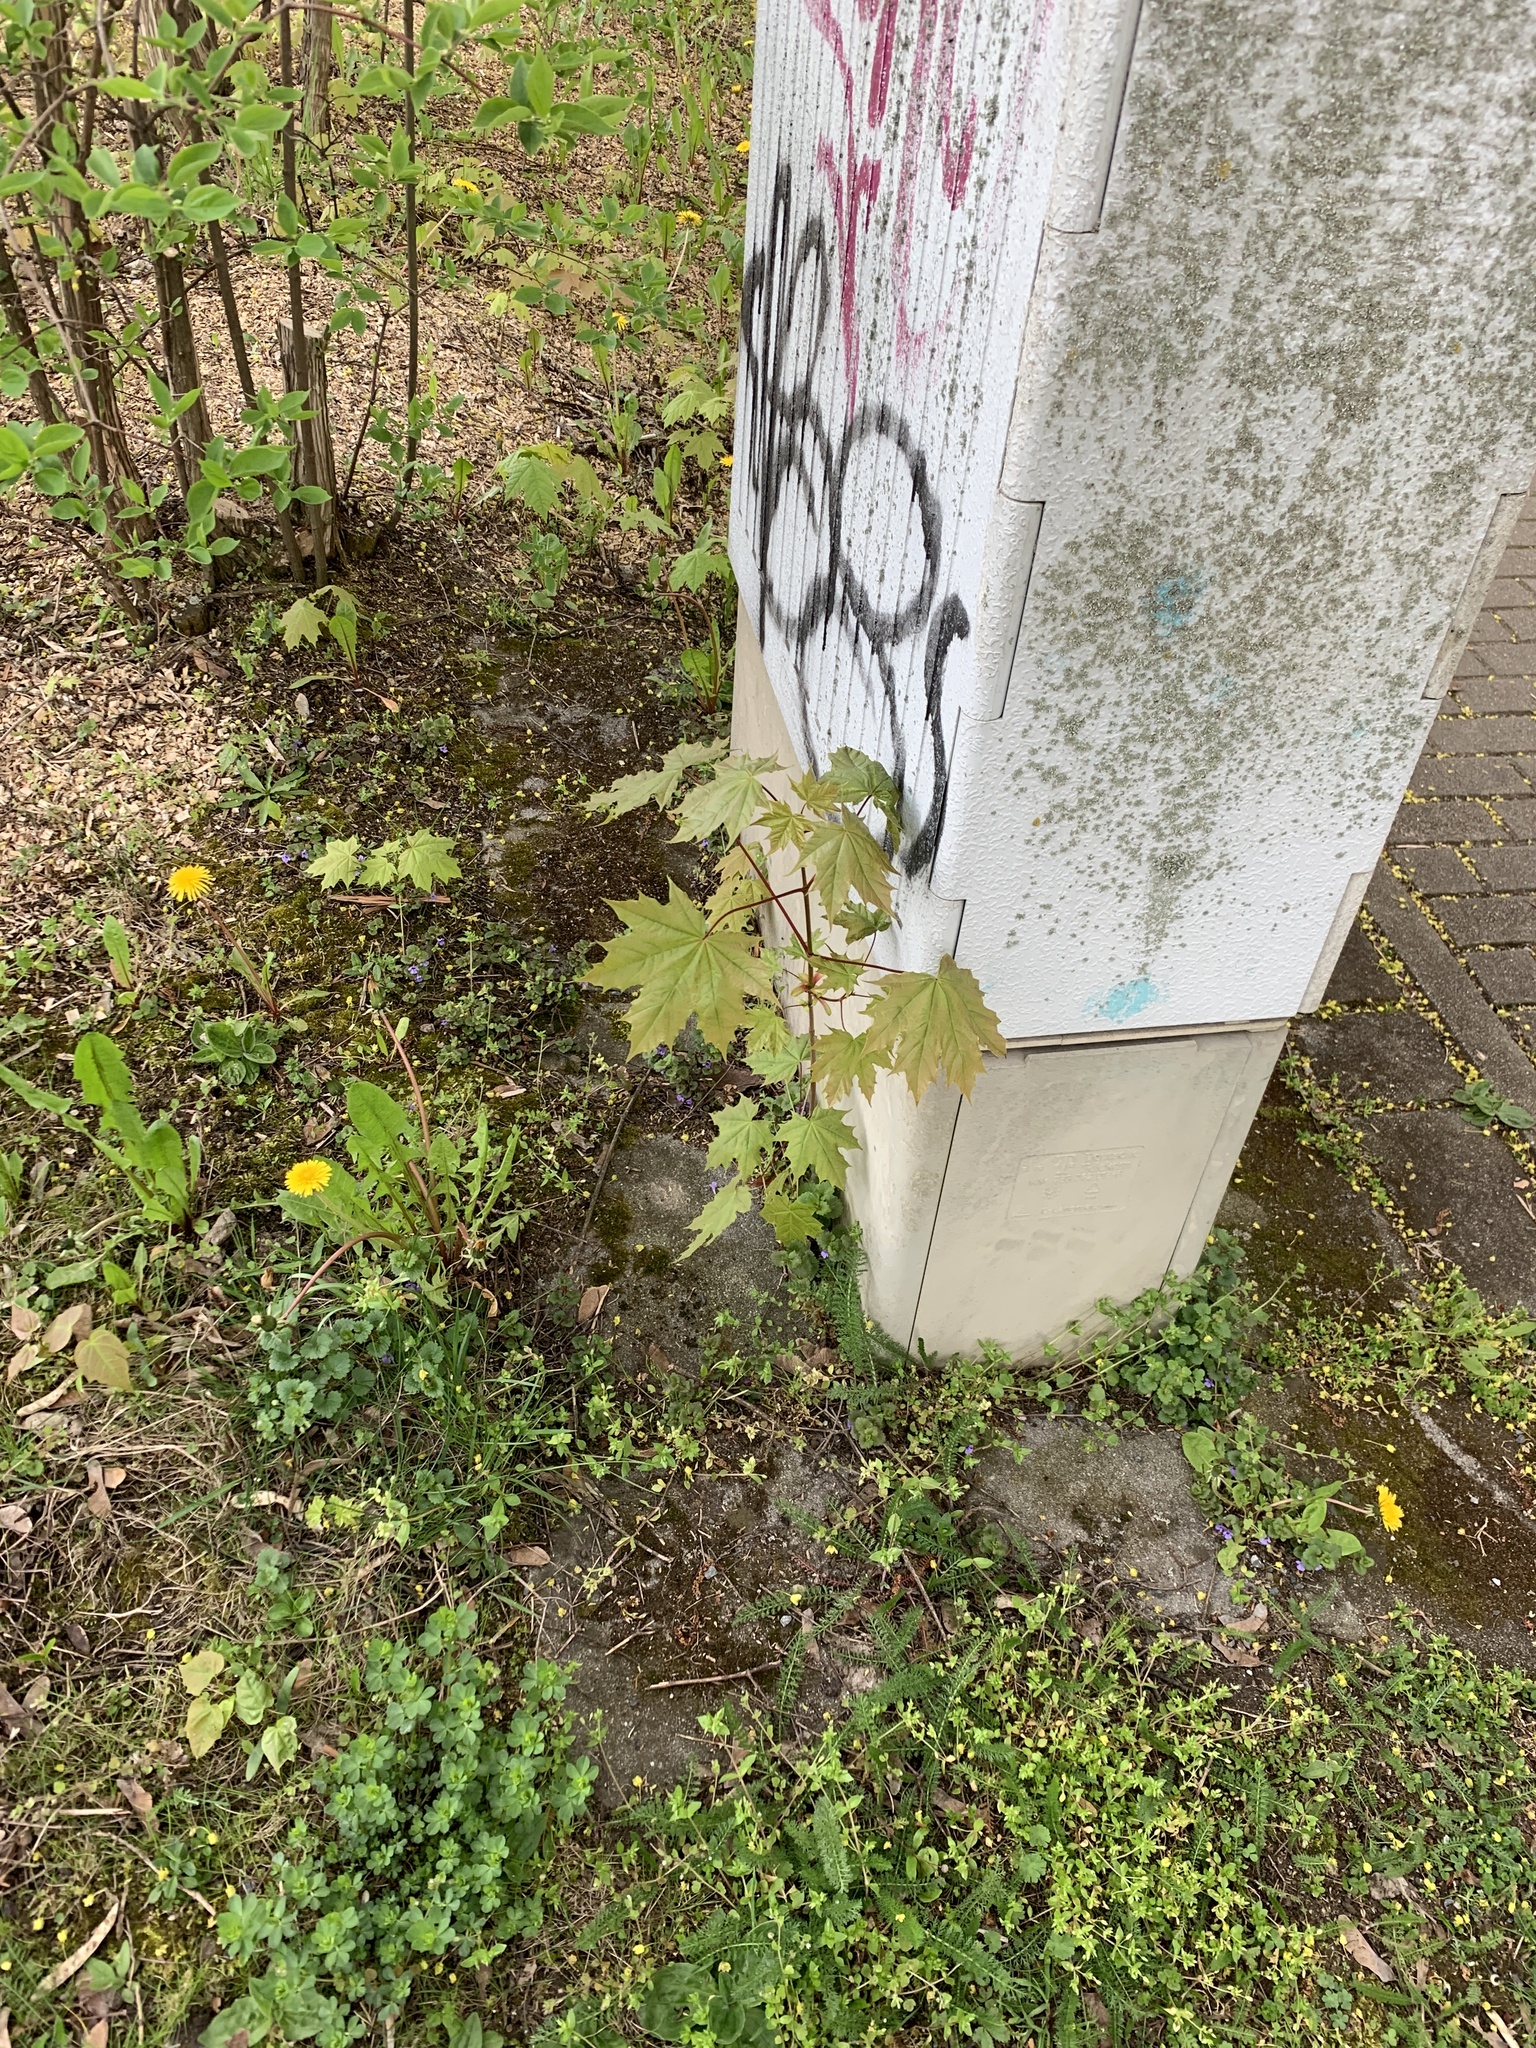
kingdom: Plantae
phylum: Tracheophyta
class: Magnoliopsida
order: Sapindales
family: Sapindaceae
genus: Acer
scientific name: Acer platanoides
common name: Norway maple
